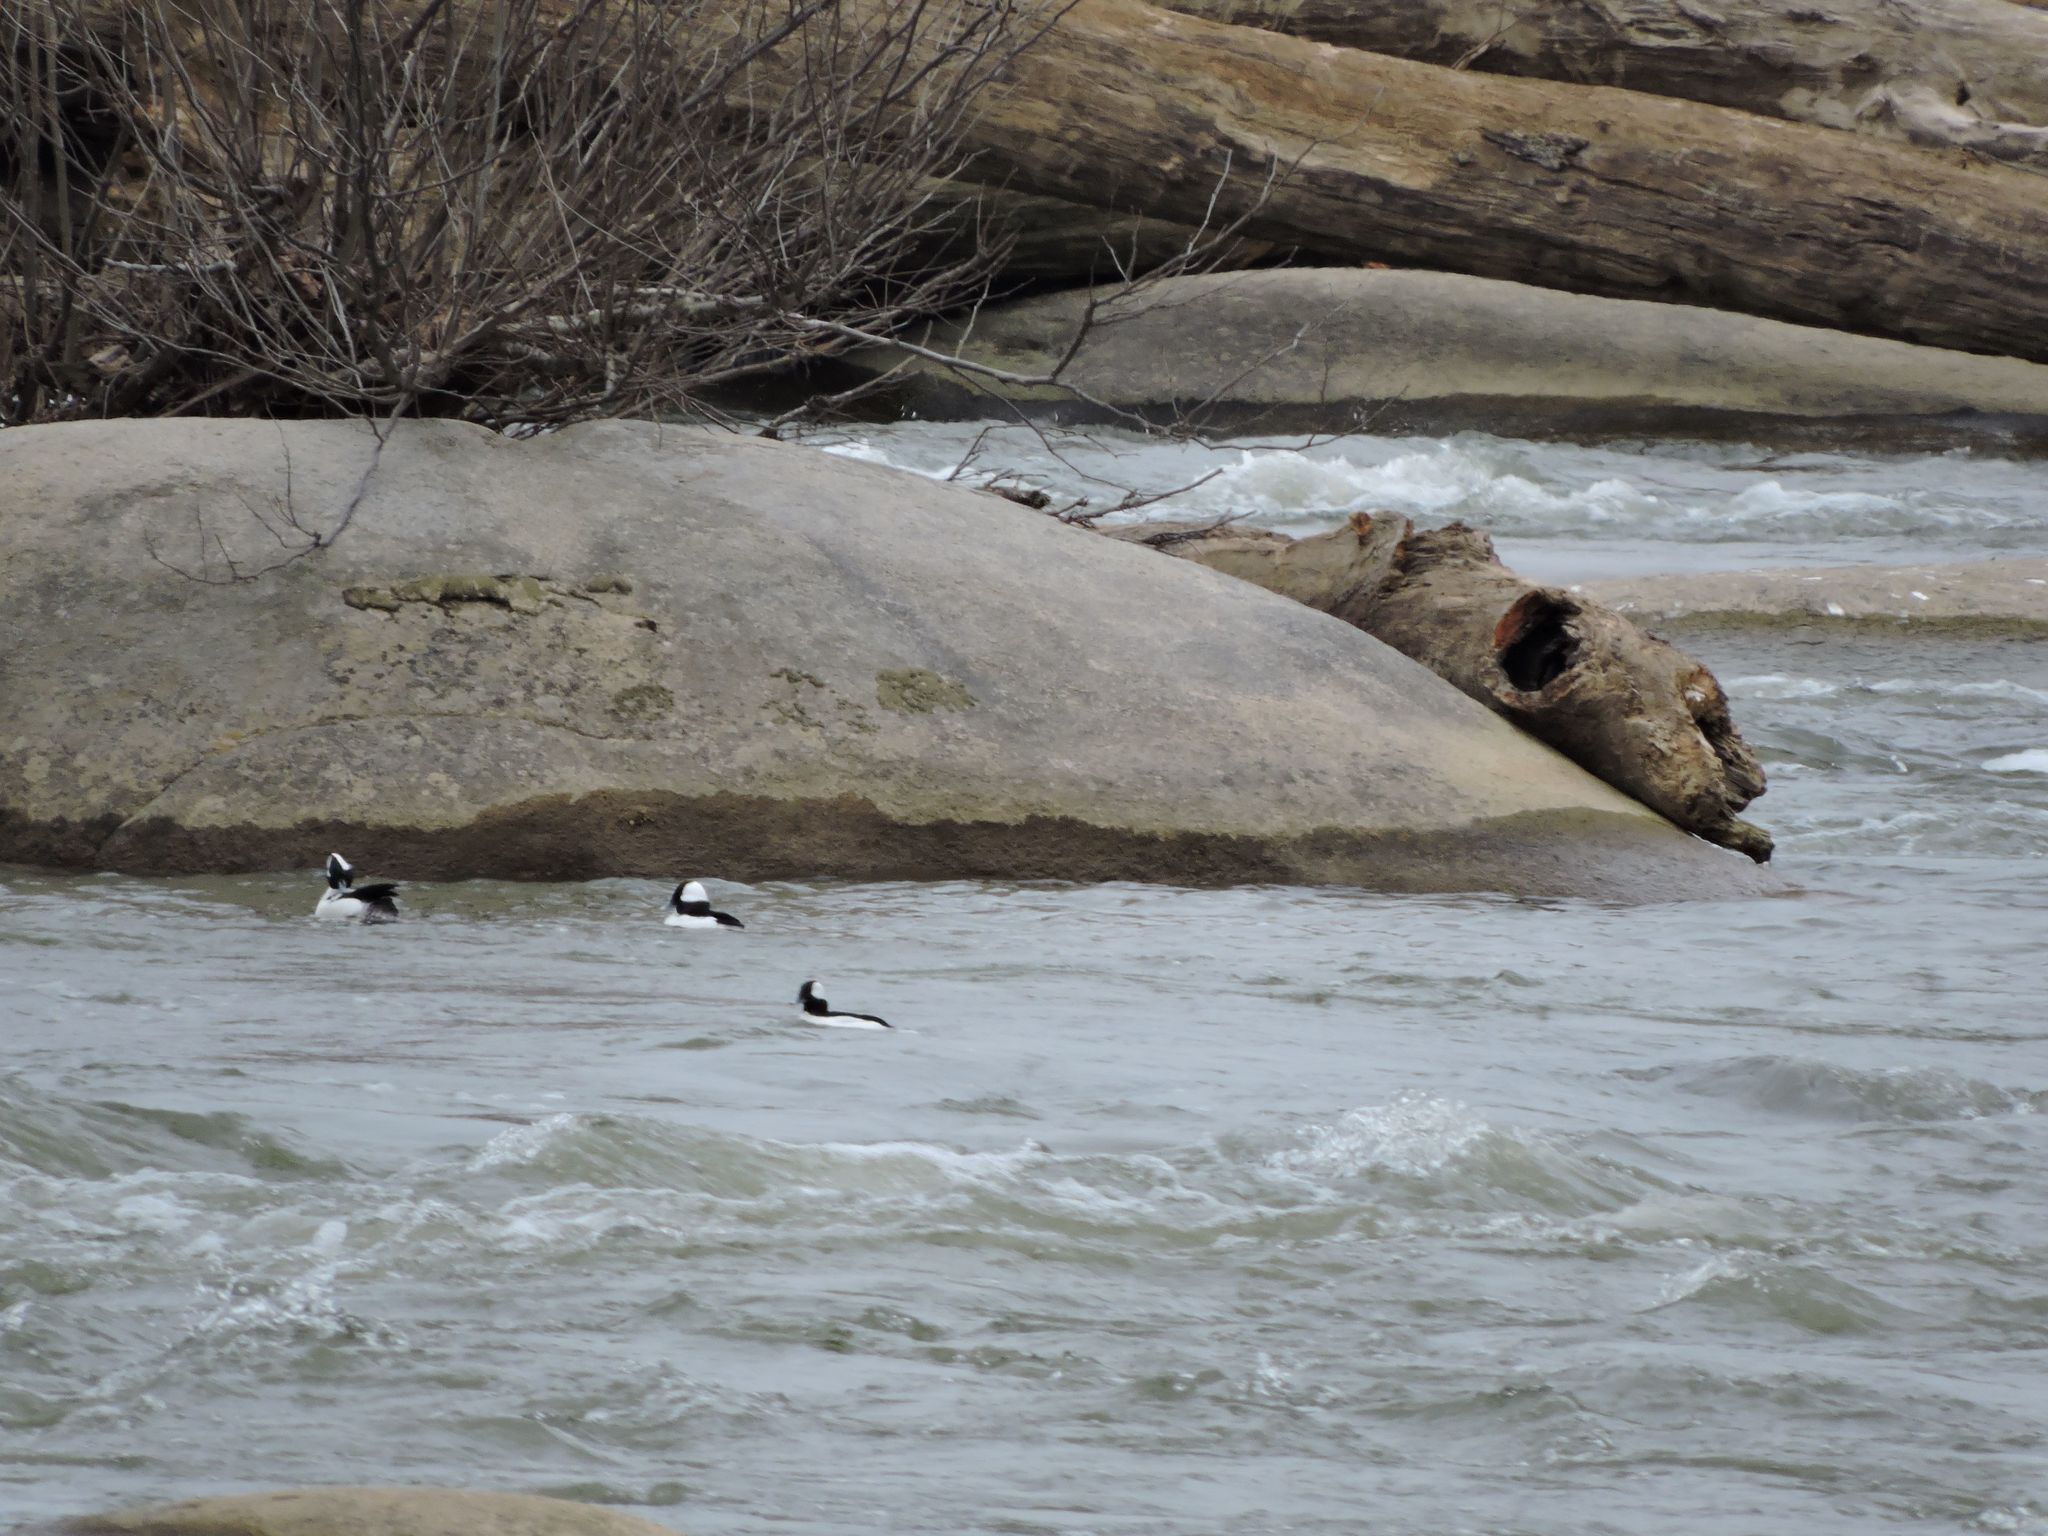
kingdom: Animalia
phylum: Chordata
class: Aves
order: Anseriformes
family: Anatidae
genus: Bucephala
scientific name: Bucephala albeola
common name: Bufflehead
